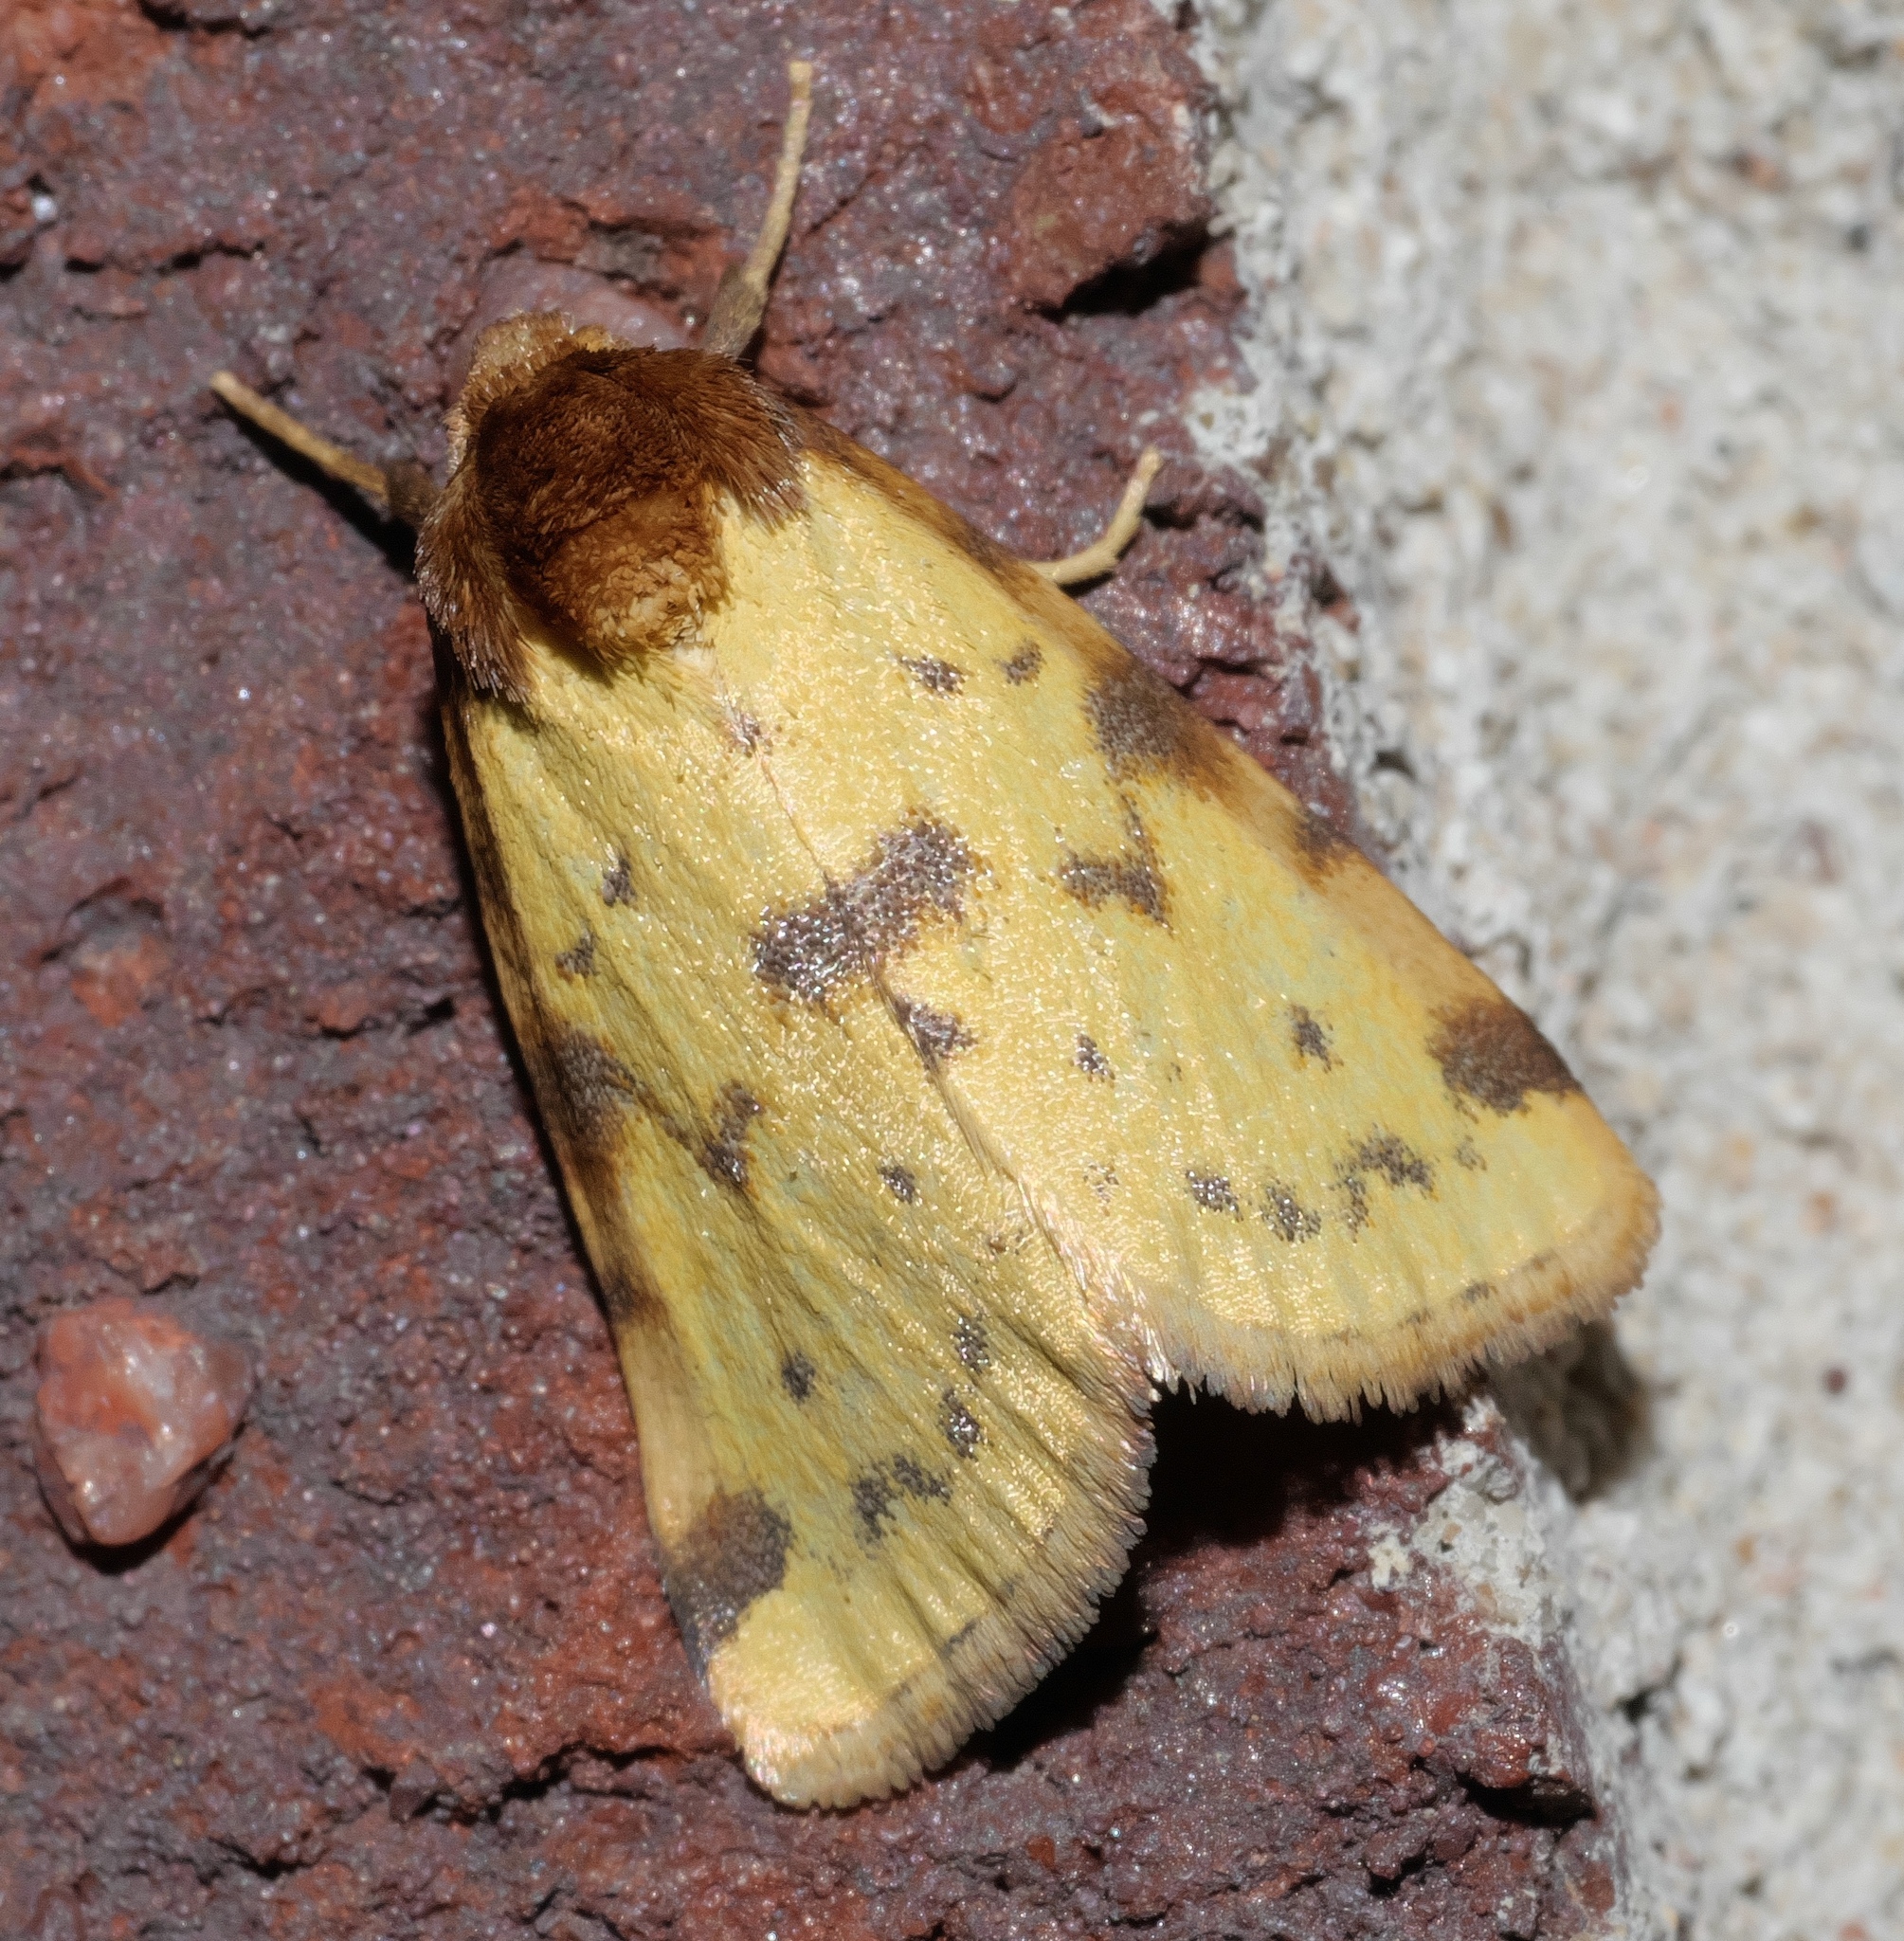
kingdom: Animalia
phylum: Arthropoda
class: Insecta
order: Lepidoptera
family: Noctuidae
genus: Azenia
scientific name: Azenia obtusa
